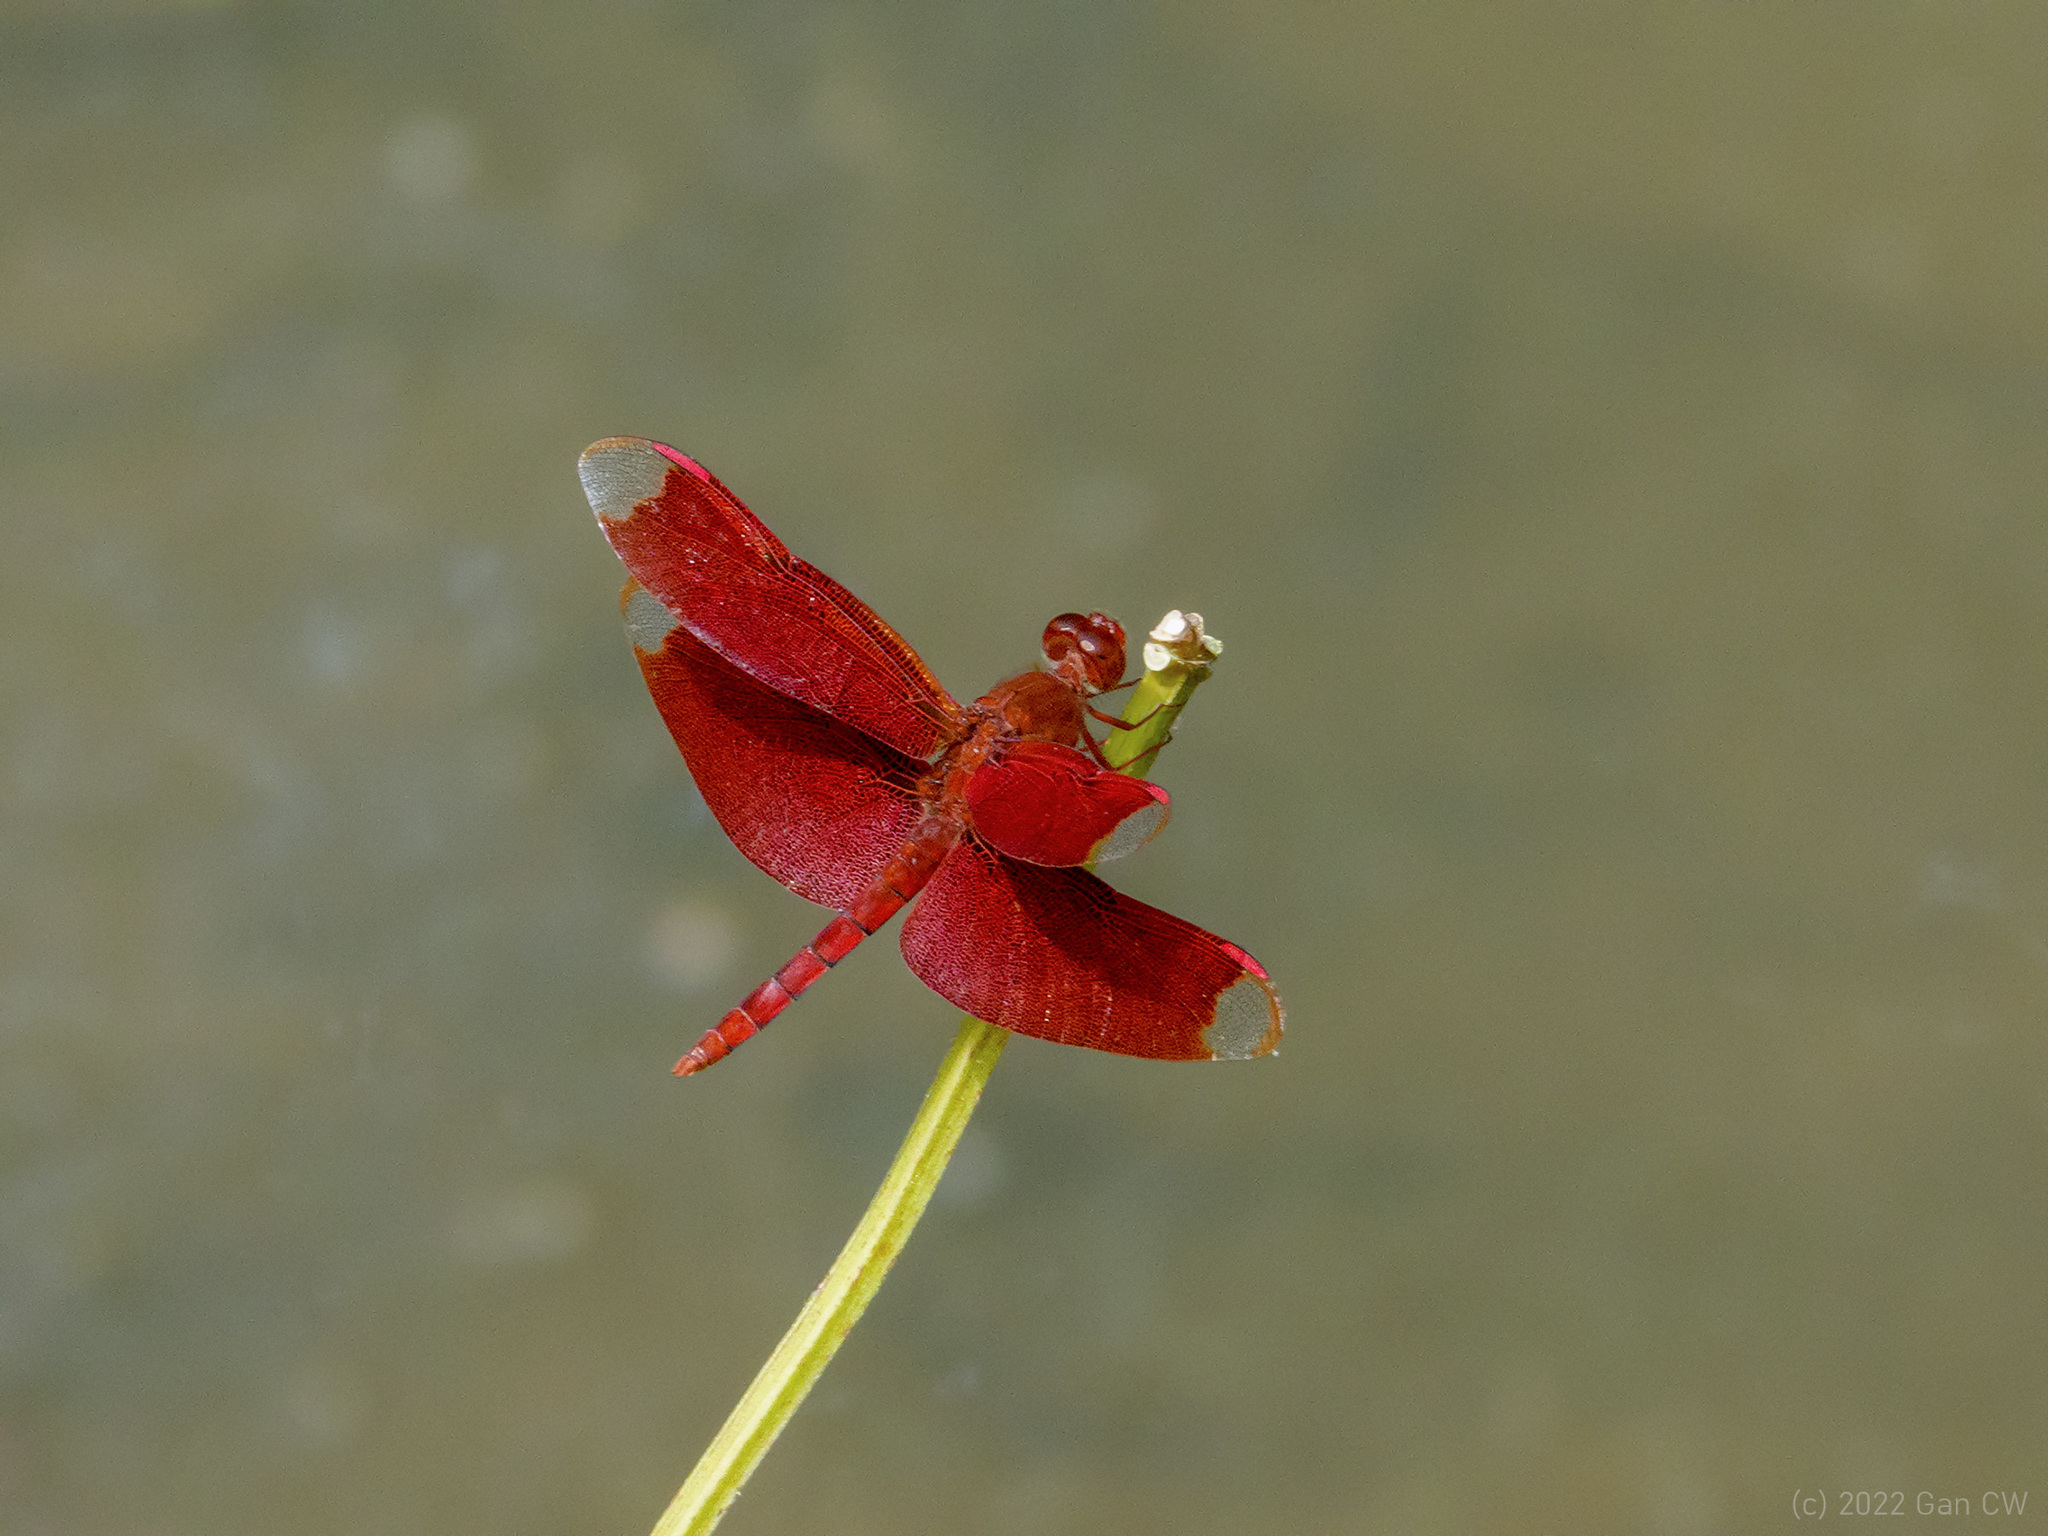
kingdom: Animalia
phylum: Arthropoda
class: Insecta
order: Odonata
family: Libellulidae
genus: Neurothemis
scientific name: Neurothemis fulvia
